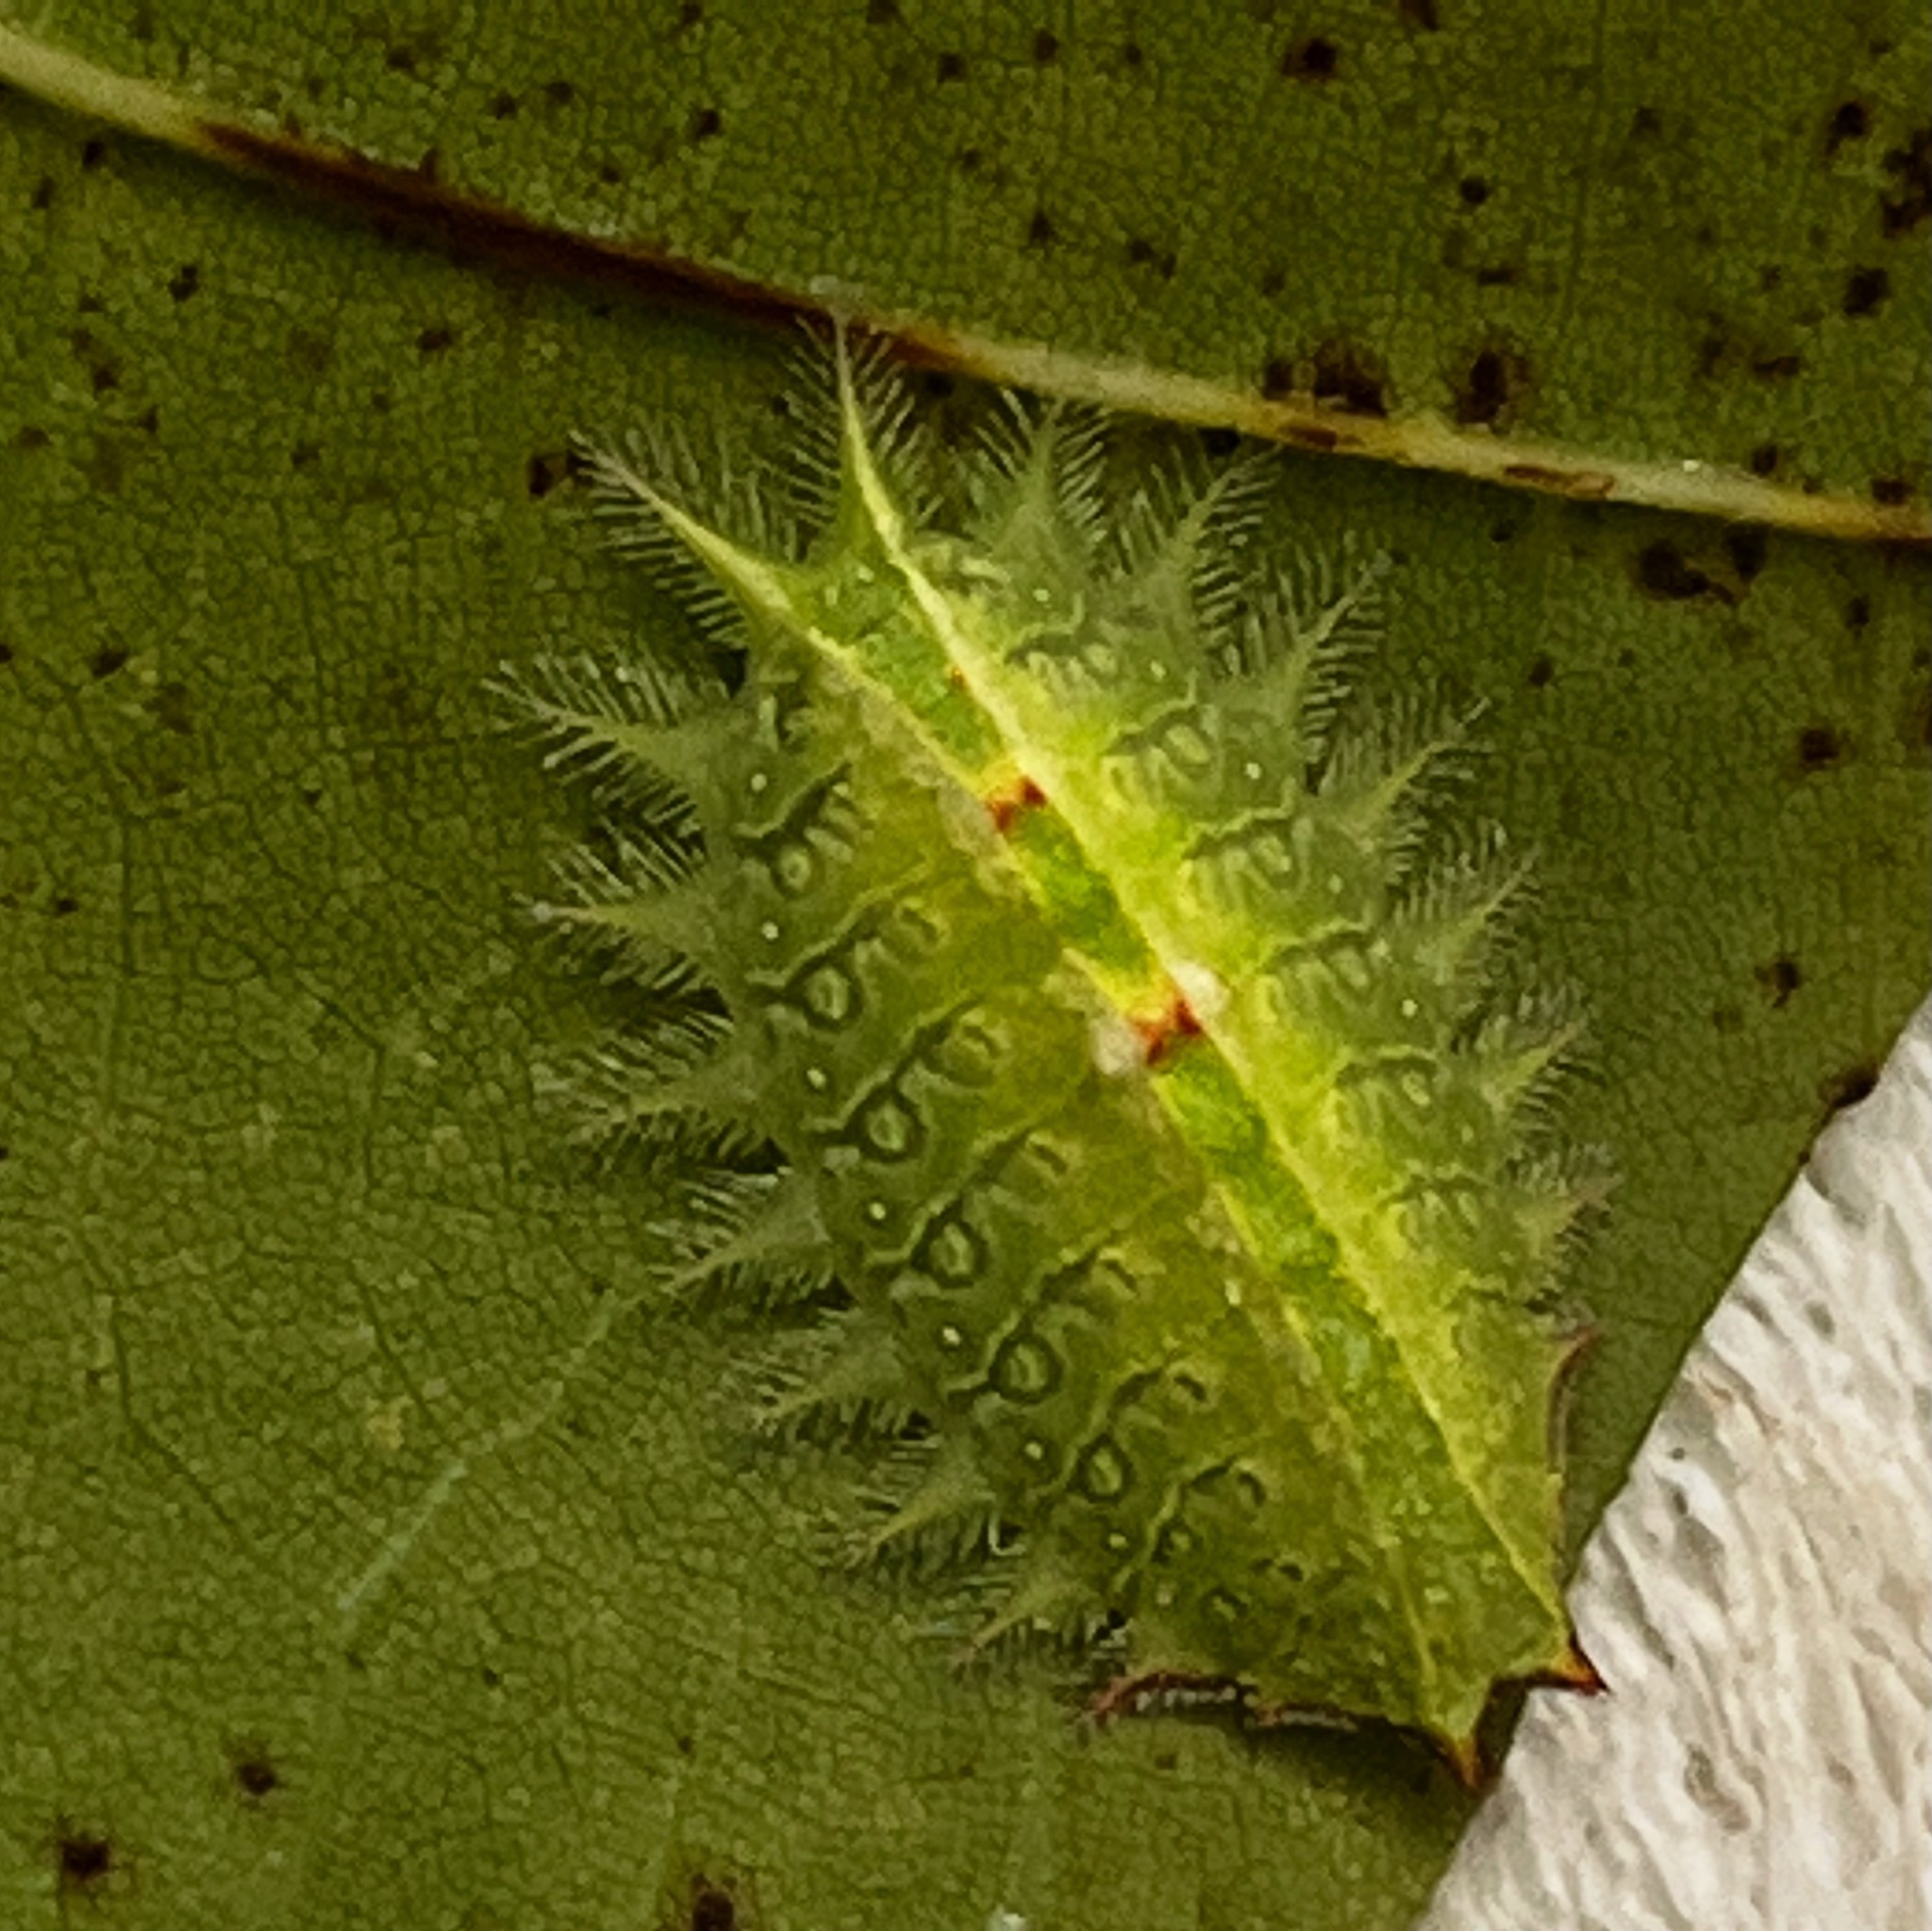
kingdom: Animalia
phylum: Arthropoda
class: Insecta
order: Lepidoptera
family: Limacodidae
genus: Isa
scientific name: Isa textula
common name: Crowned slug moth
